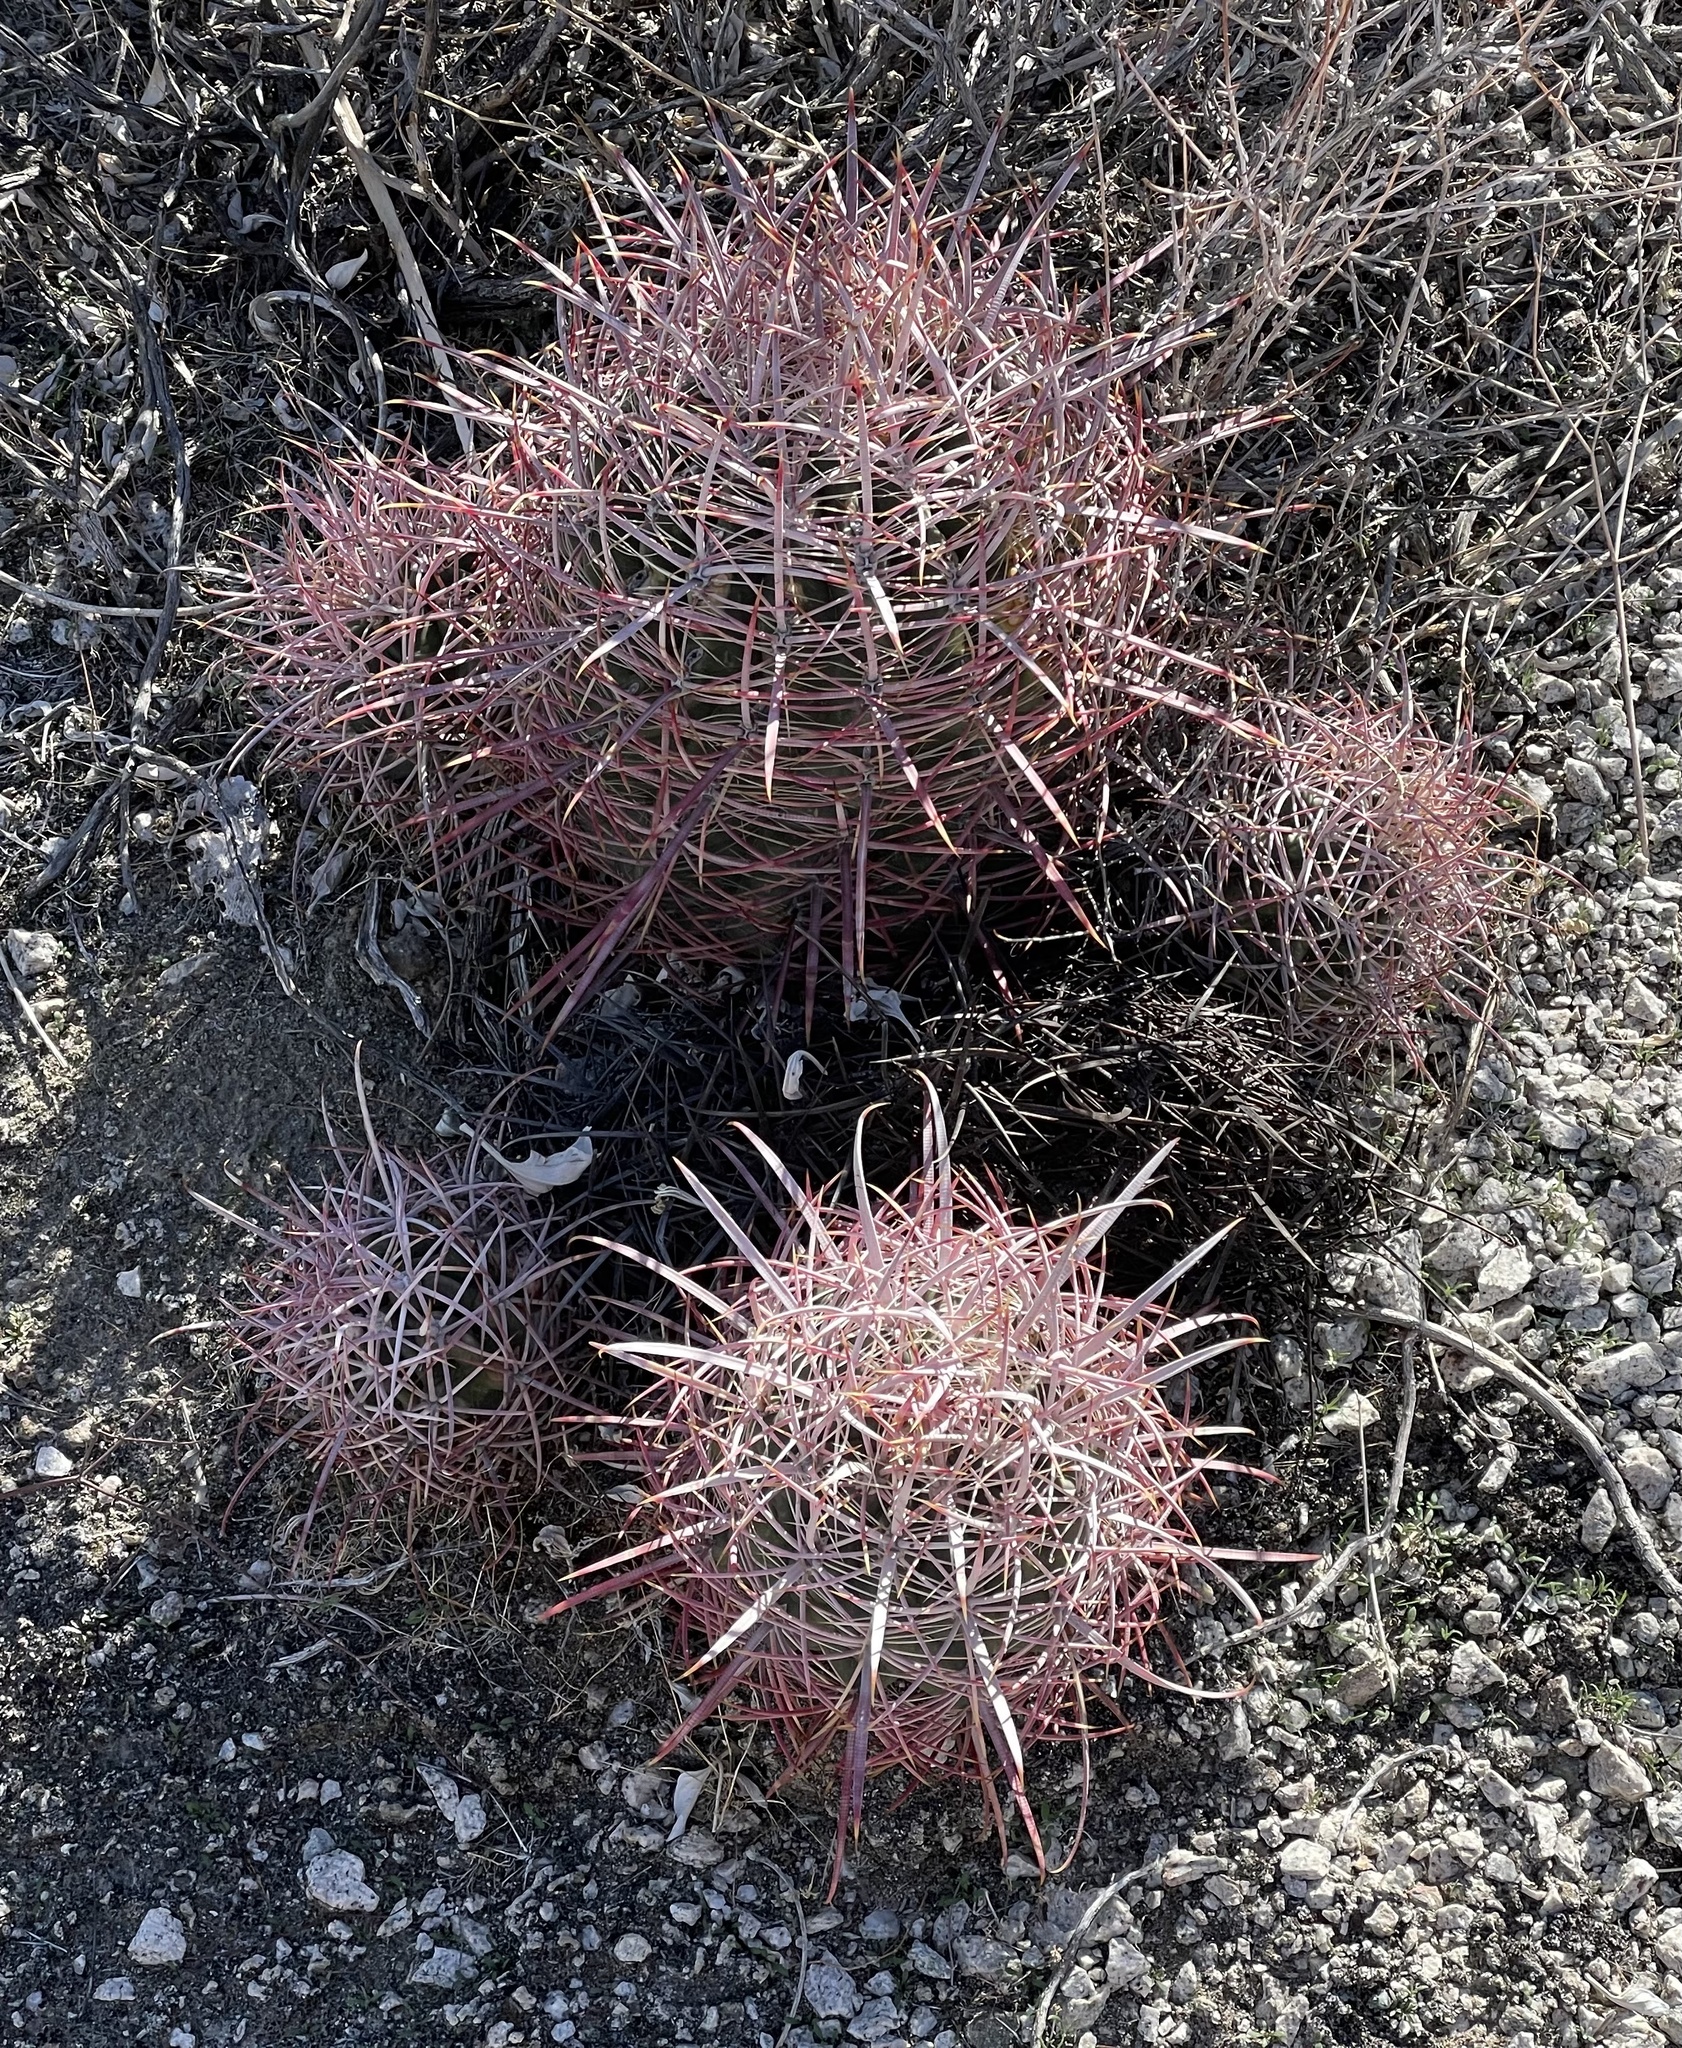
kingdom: Plantae
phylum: Tracheophyta
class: Magnoliopsida
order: Caryophyllales
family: Cactaceae
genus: Ferocactus
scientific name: Ferocactus cylindraceus
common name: California barrel cactus
